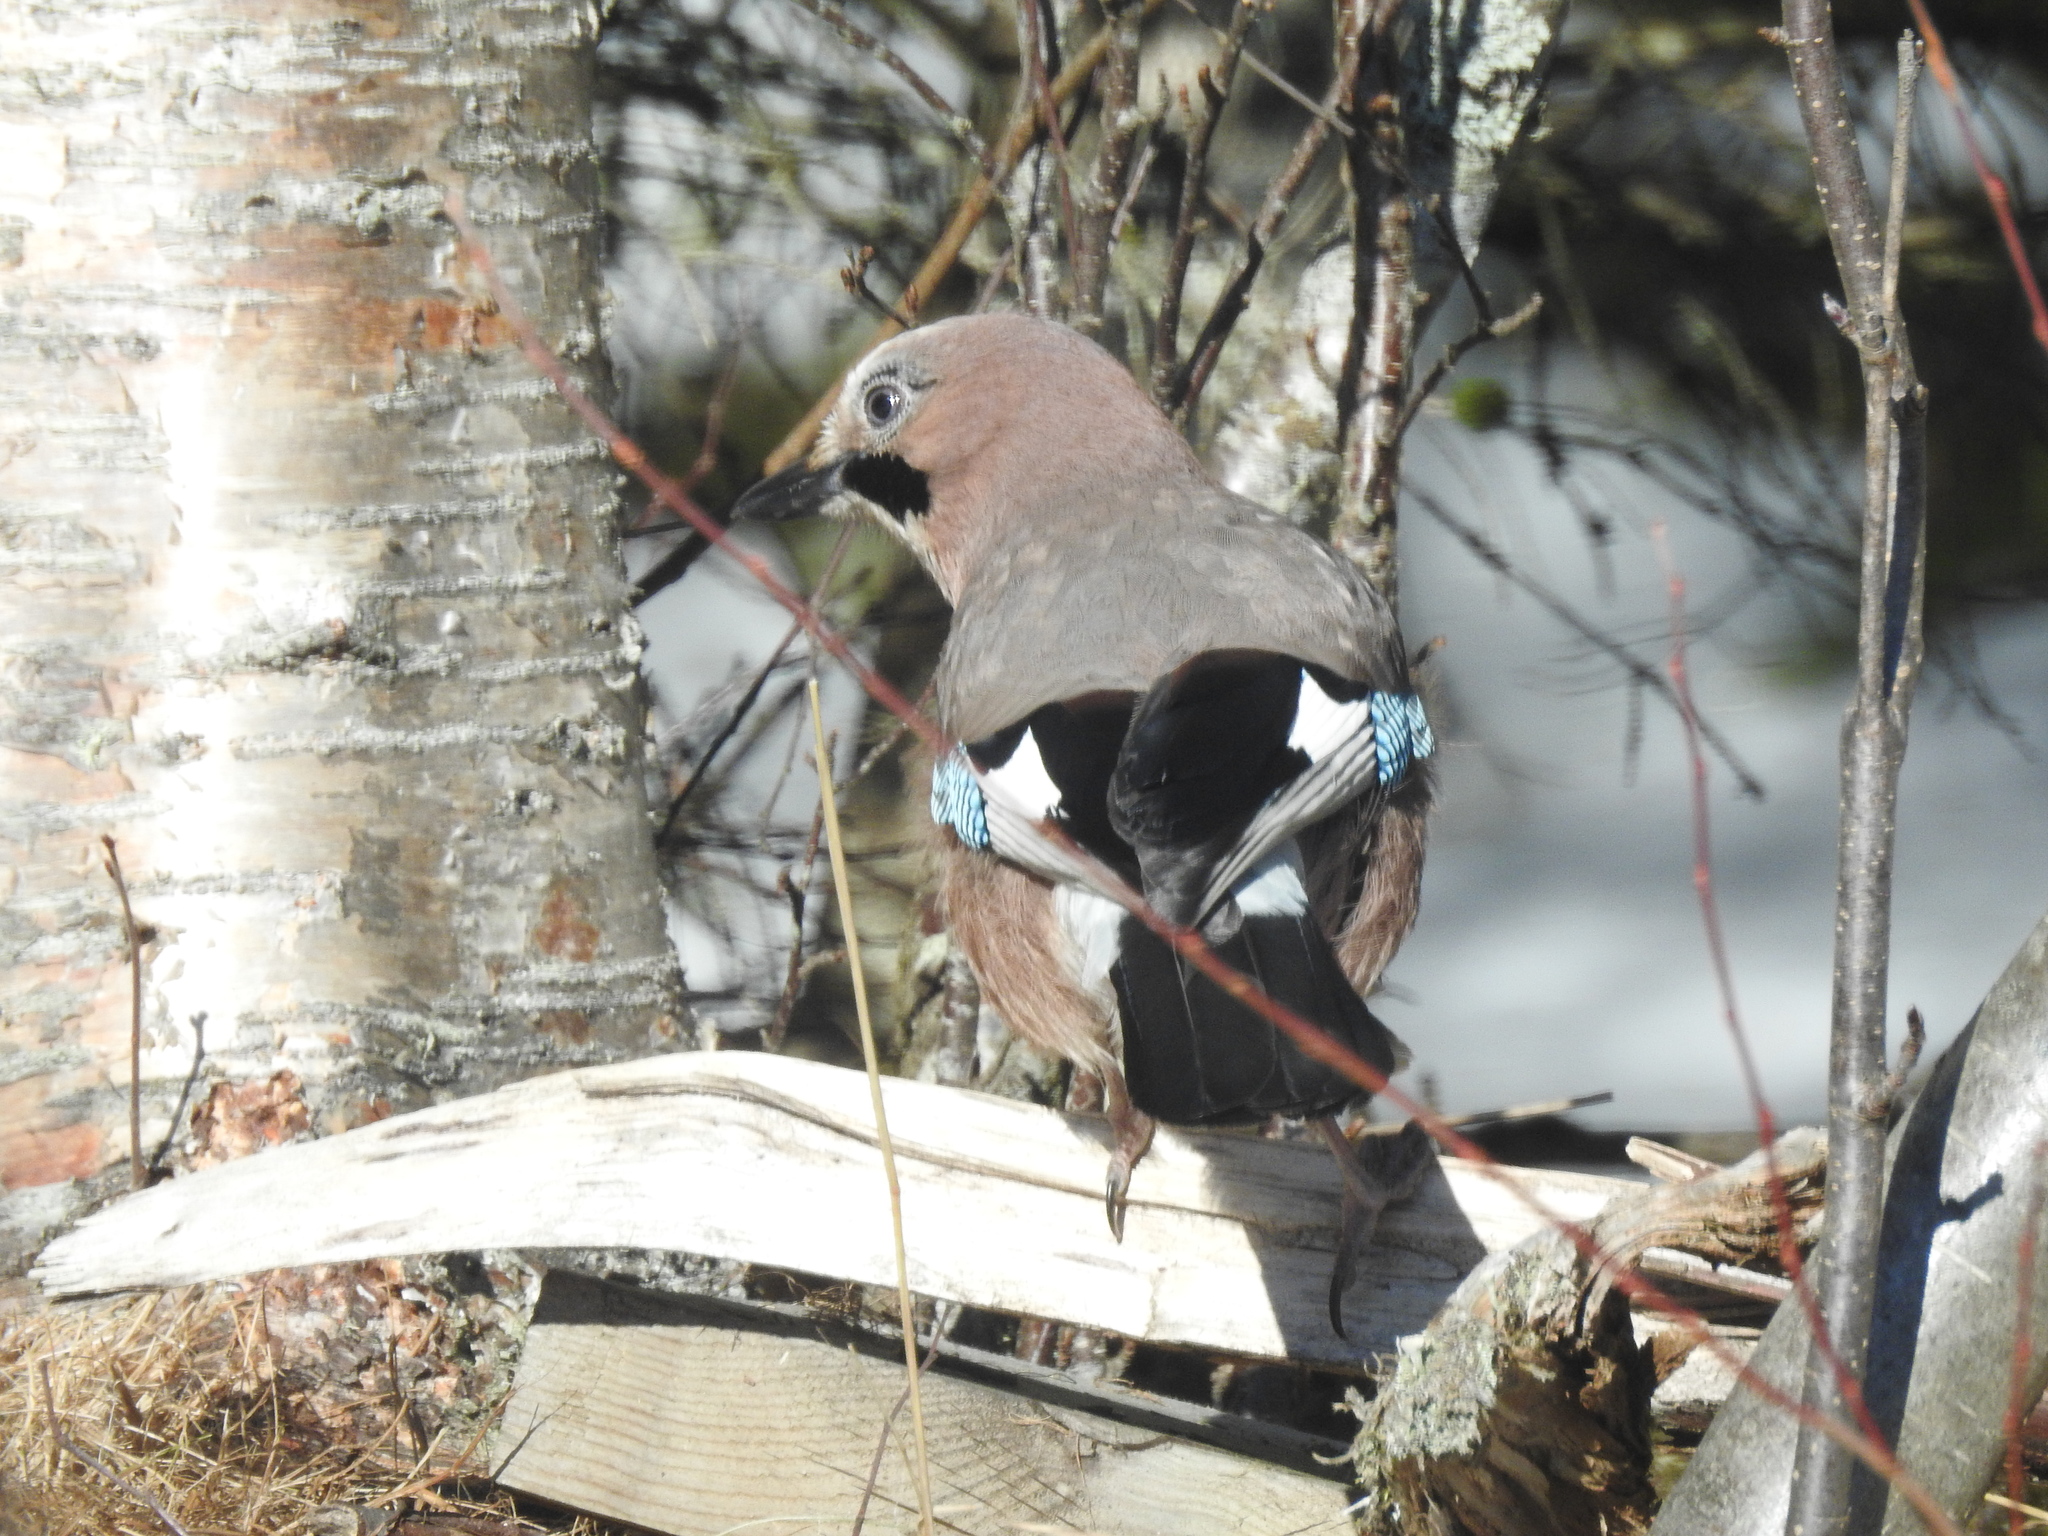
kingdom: Animalia
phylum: Chordata
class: Aves
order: Passeriformes
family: Corvidae
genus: Garrulus
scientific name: Garrulus glandarius
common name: Eurasian jay
